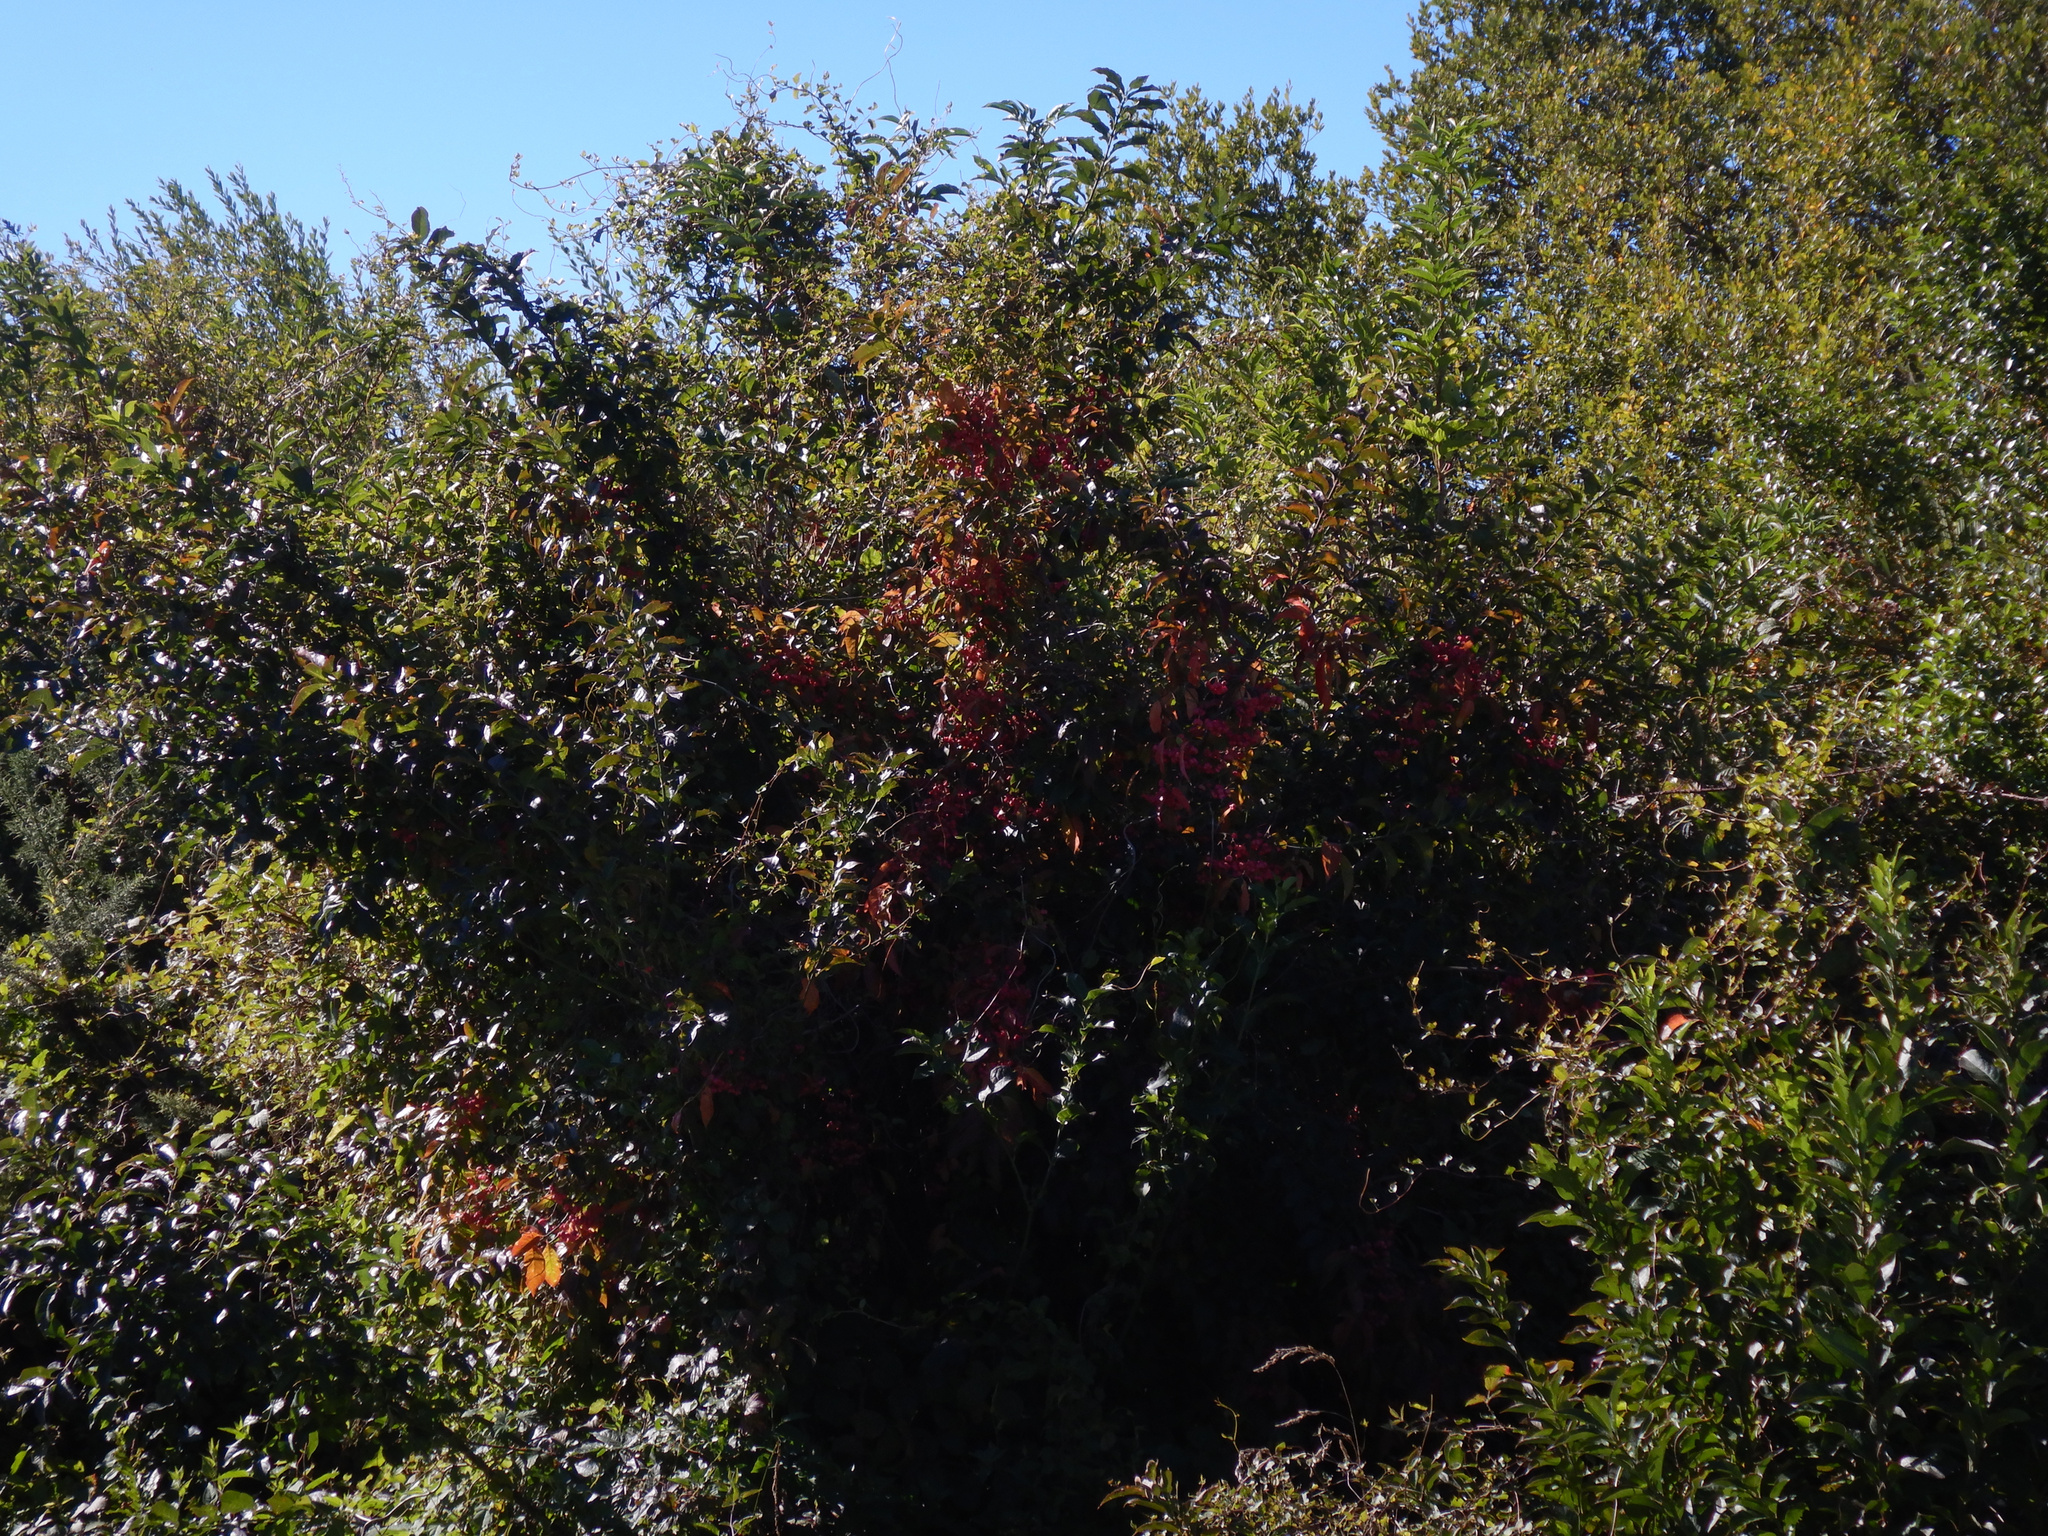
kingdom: Plantae
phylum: Tracheophyta
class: Magnoliopsida
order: Celastrales
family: Celastraceae
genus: Euonymus
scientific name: Euonymus europaeus
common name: Spindle
